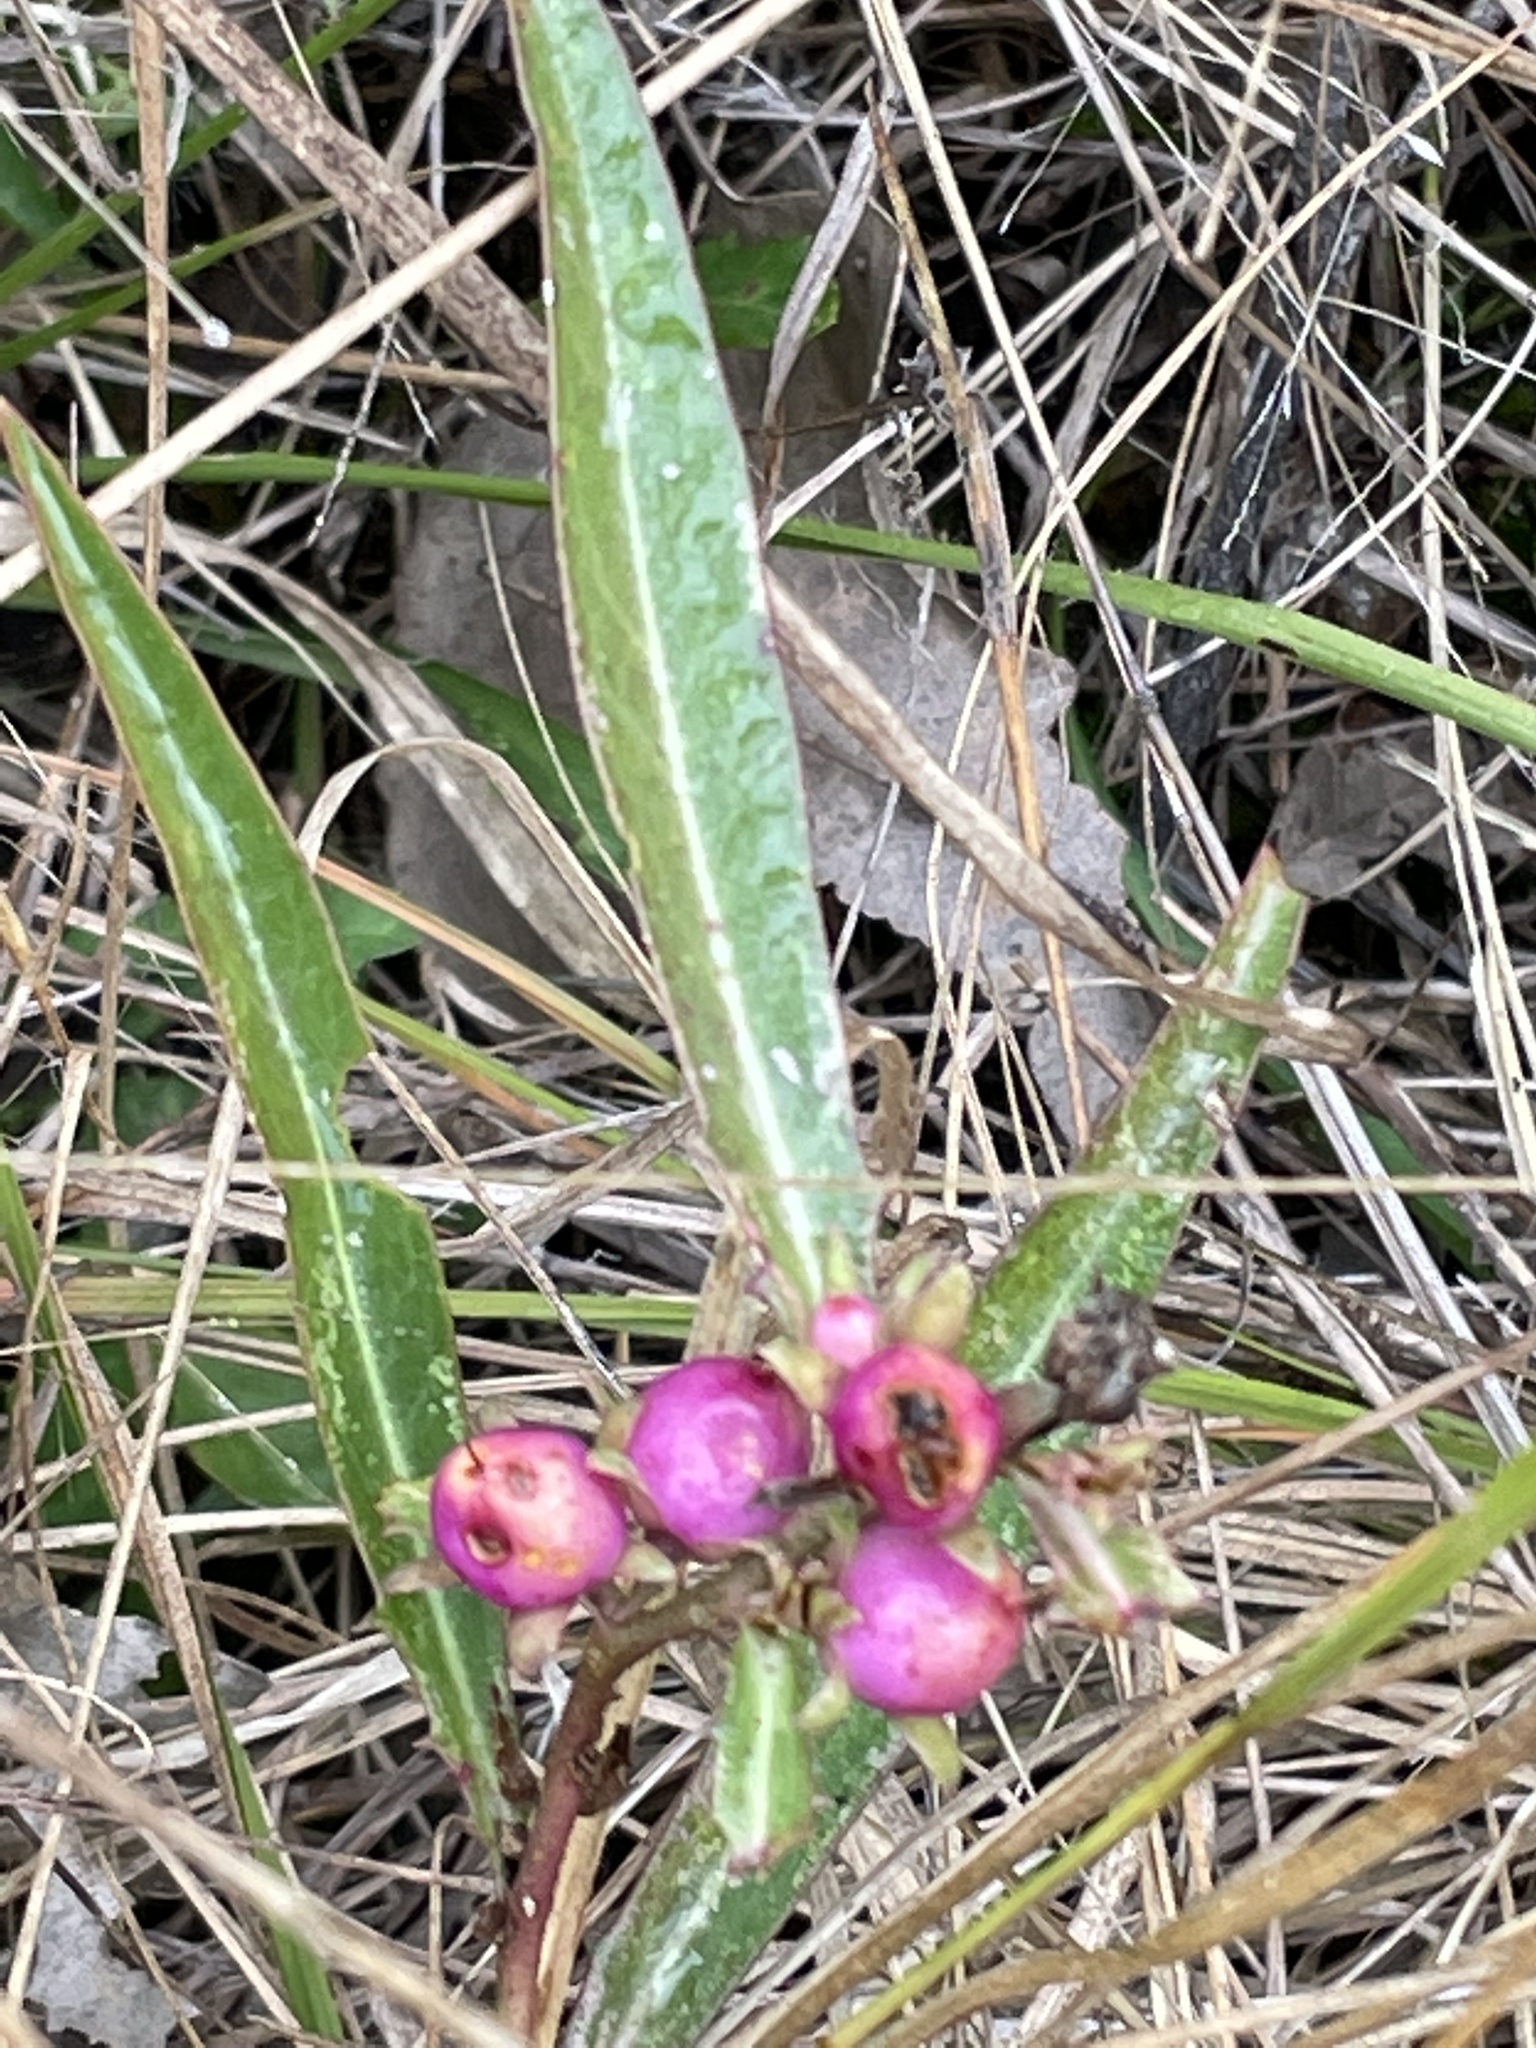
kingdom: Plantae
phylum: Tracheophyta
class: Magnoliopsida
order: Lamiales
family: Scrophulariaceae
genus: Eremophila
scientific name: Eremophila debilis
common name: Winter-apple
